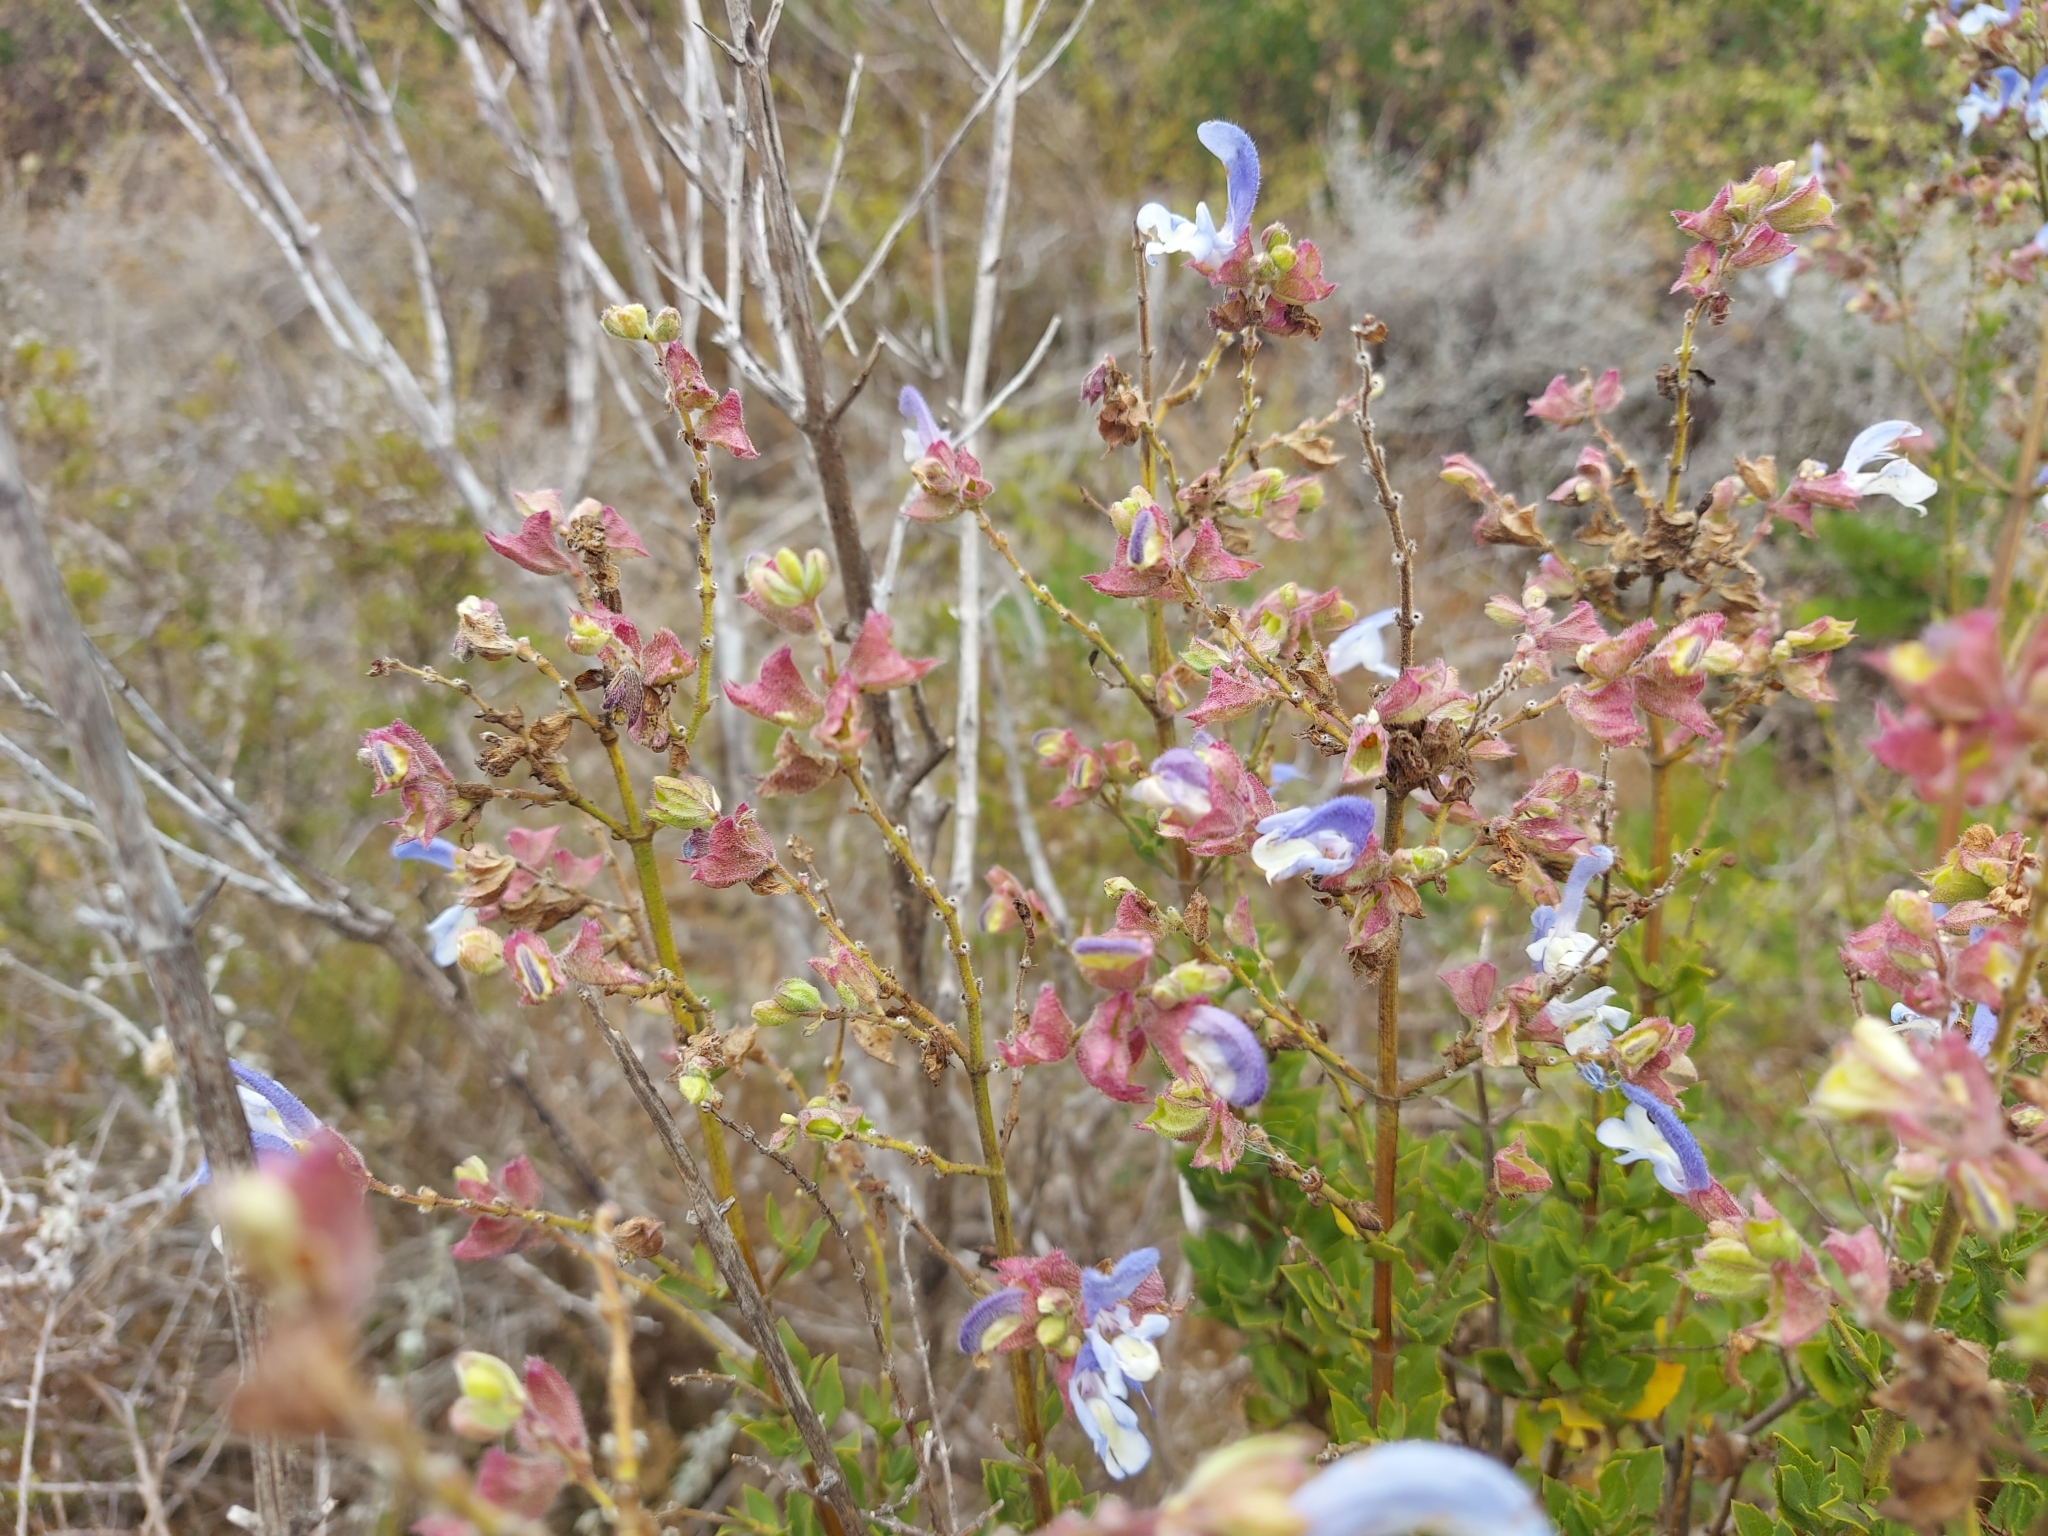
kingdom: Plantae
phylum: Tracheophyta
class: Magnoliopsida
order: Lamiales
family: Lamiaceae
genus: Salvia
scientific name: Salvia chamelaeagnea
